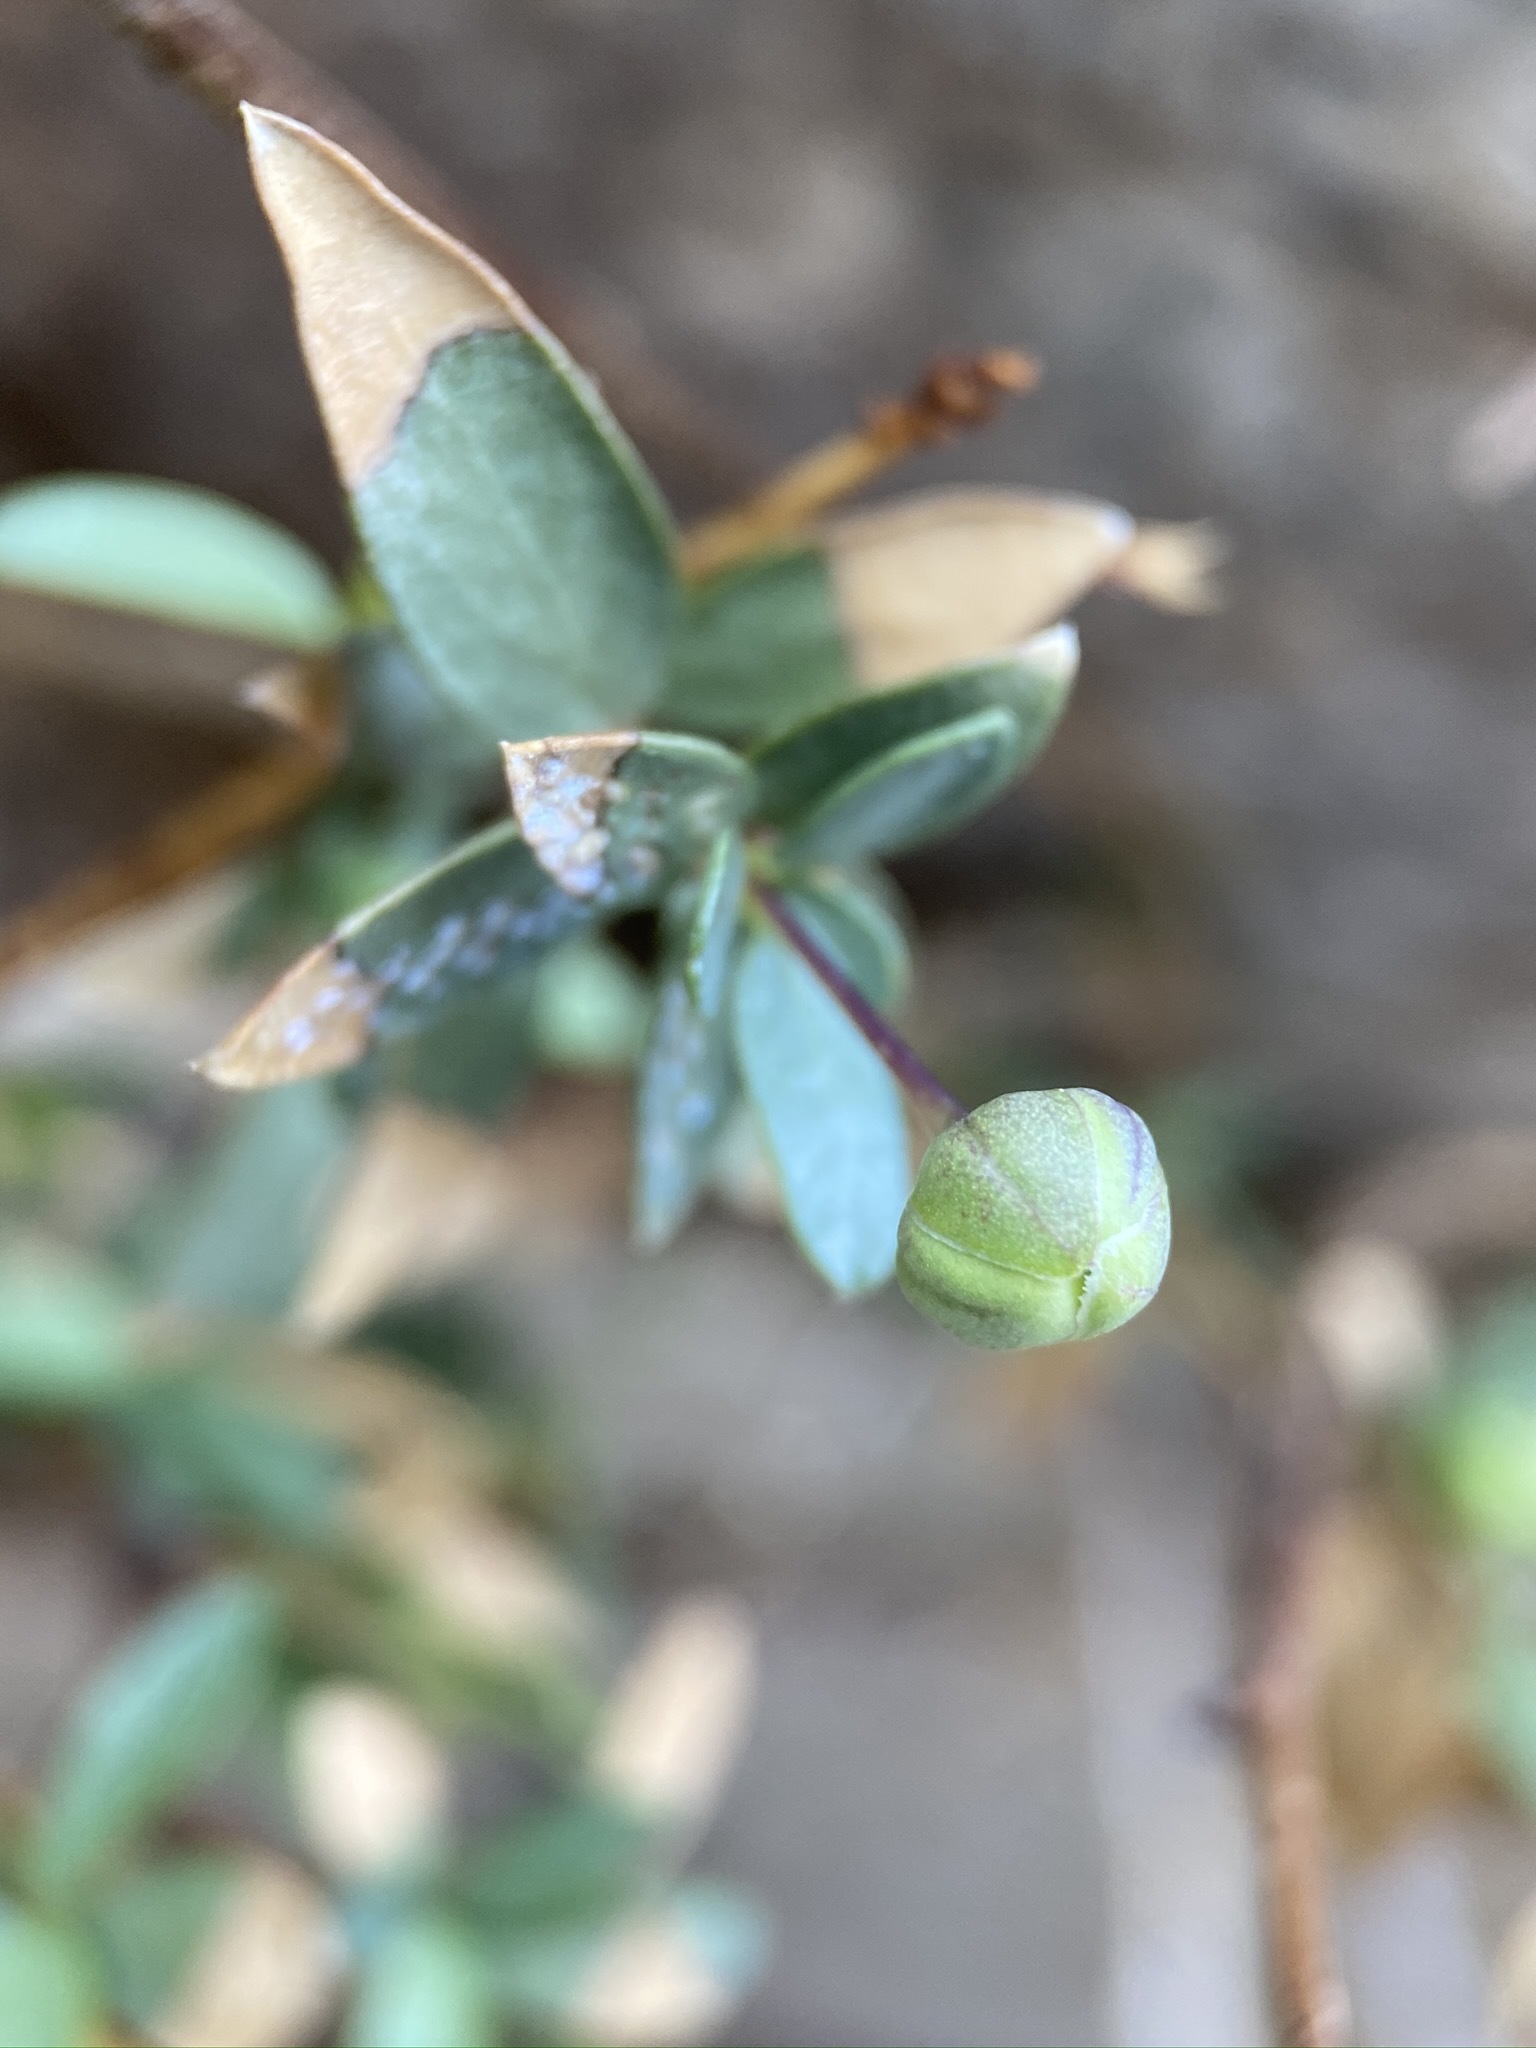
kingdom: Plantae
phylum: Tracheophyta
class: Magnoliopsida
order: Crossosomatales
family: Crossosomataceae
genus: Crossosoma
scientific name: Crossosoma bigelovii
